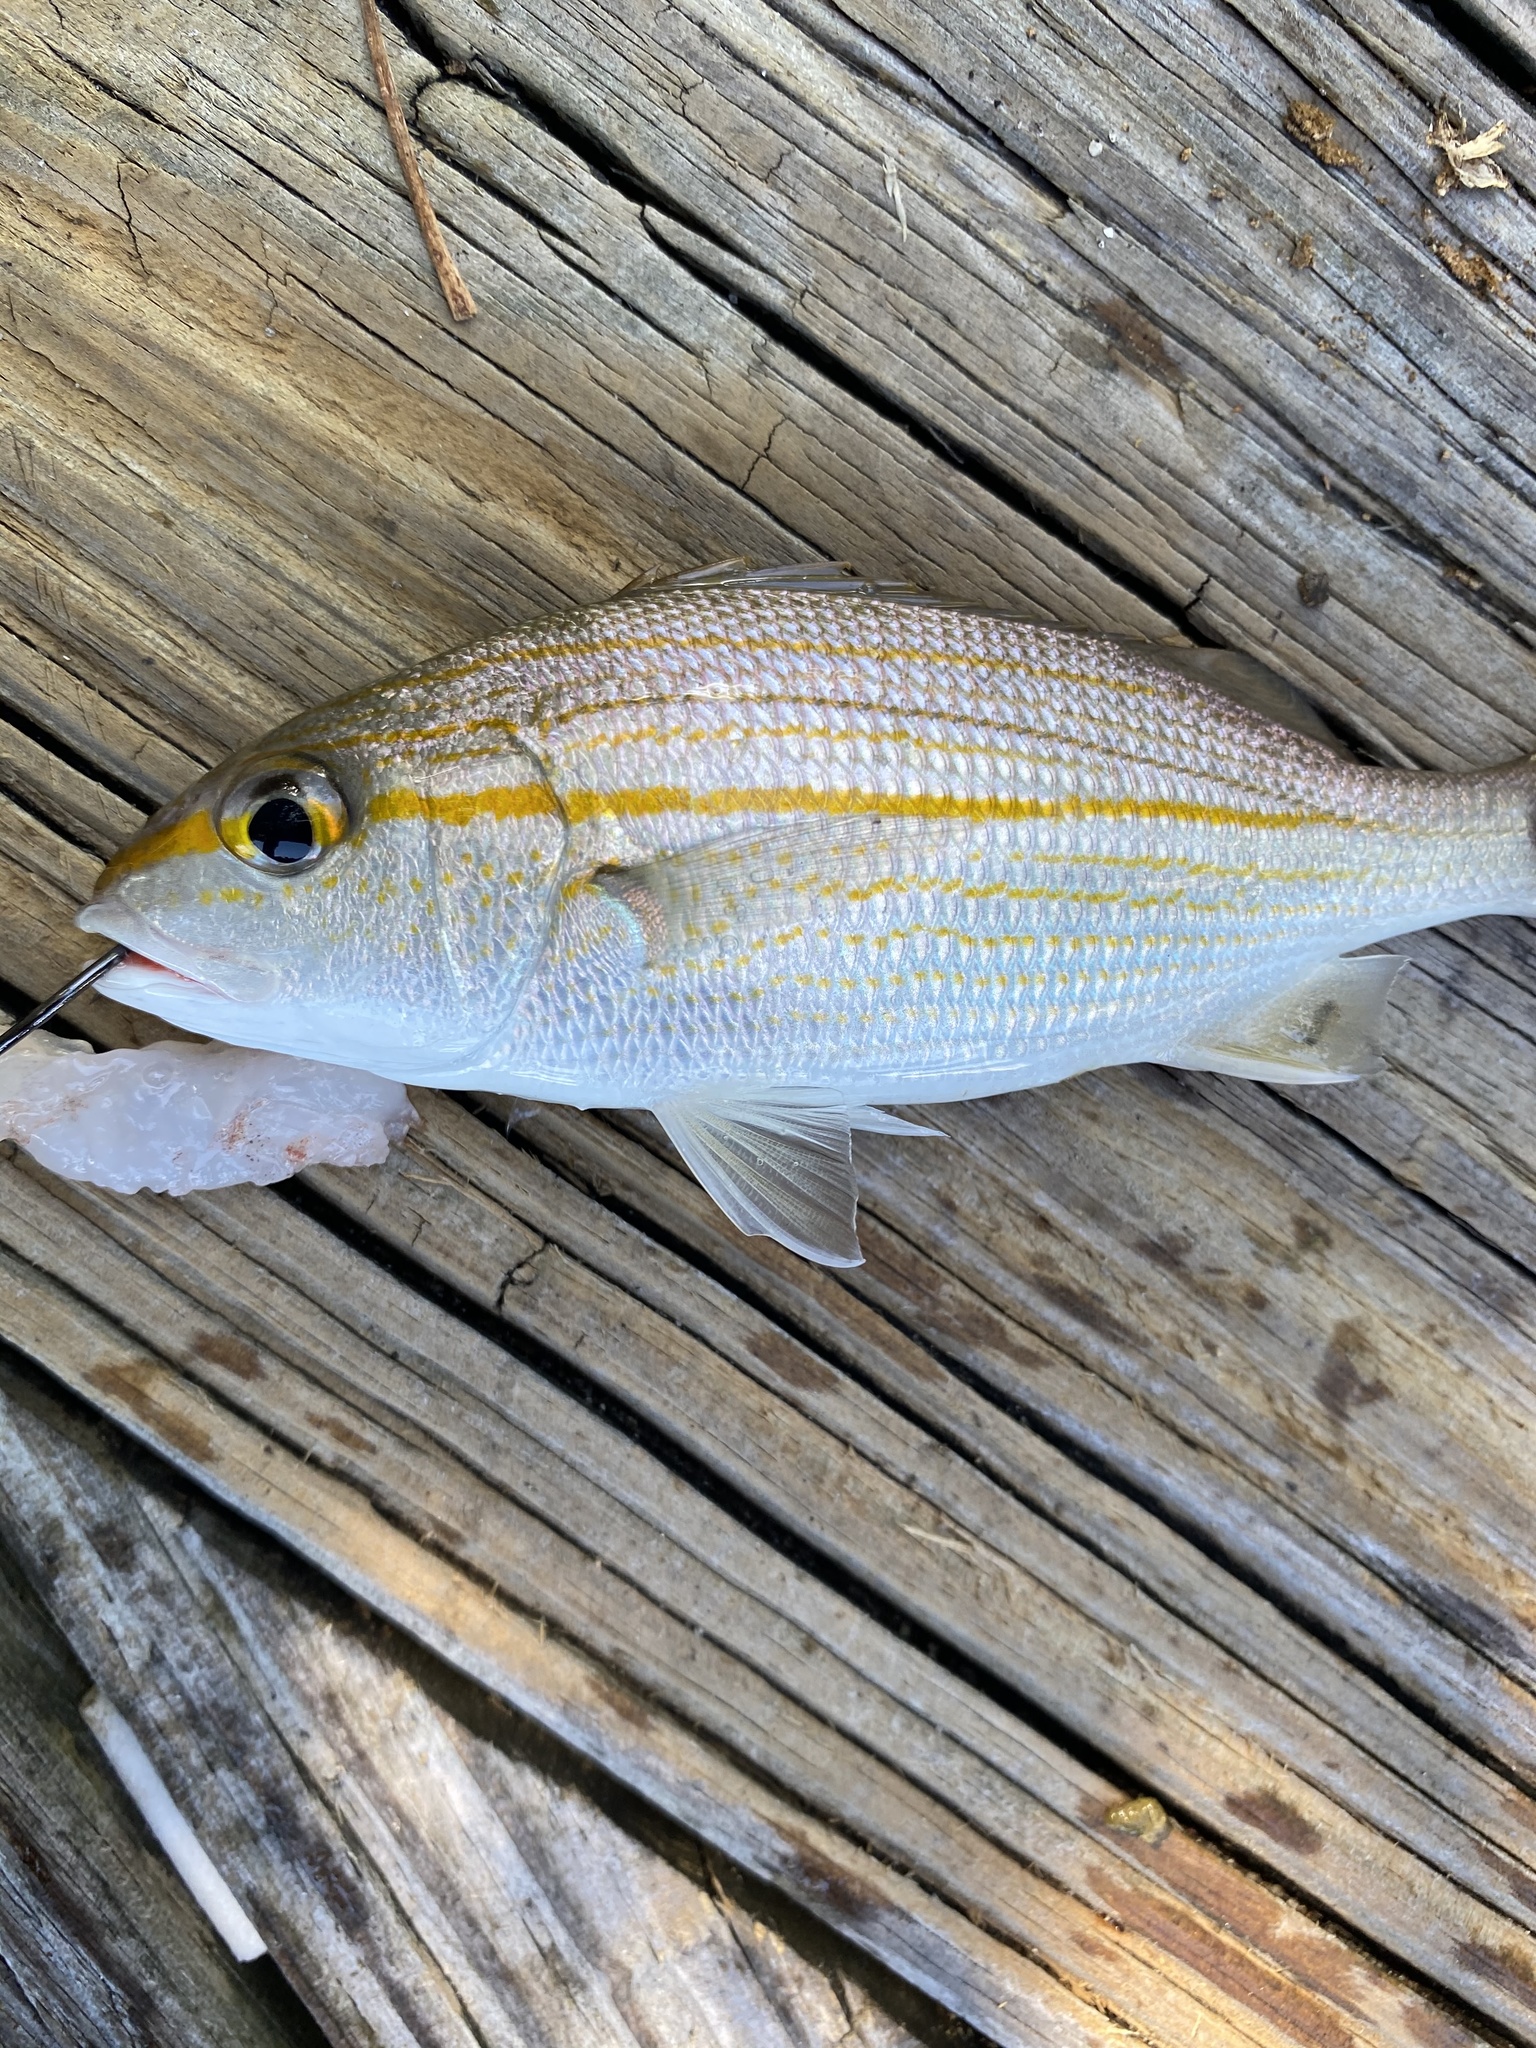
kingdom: Animalia
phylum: Chordata
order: Perciformes
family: Haemulidae
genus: Haemulon
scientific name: Haemulon aurolineatum
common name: Tomtate
